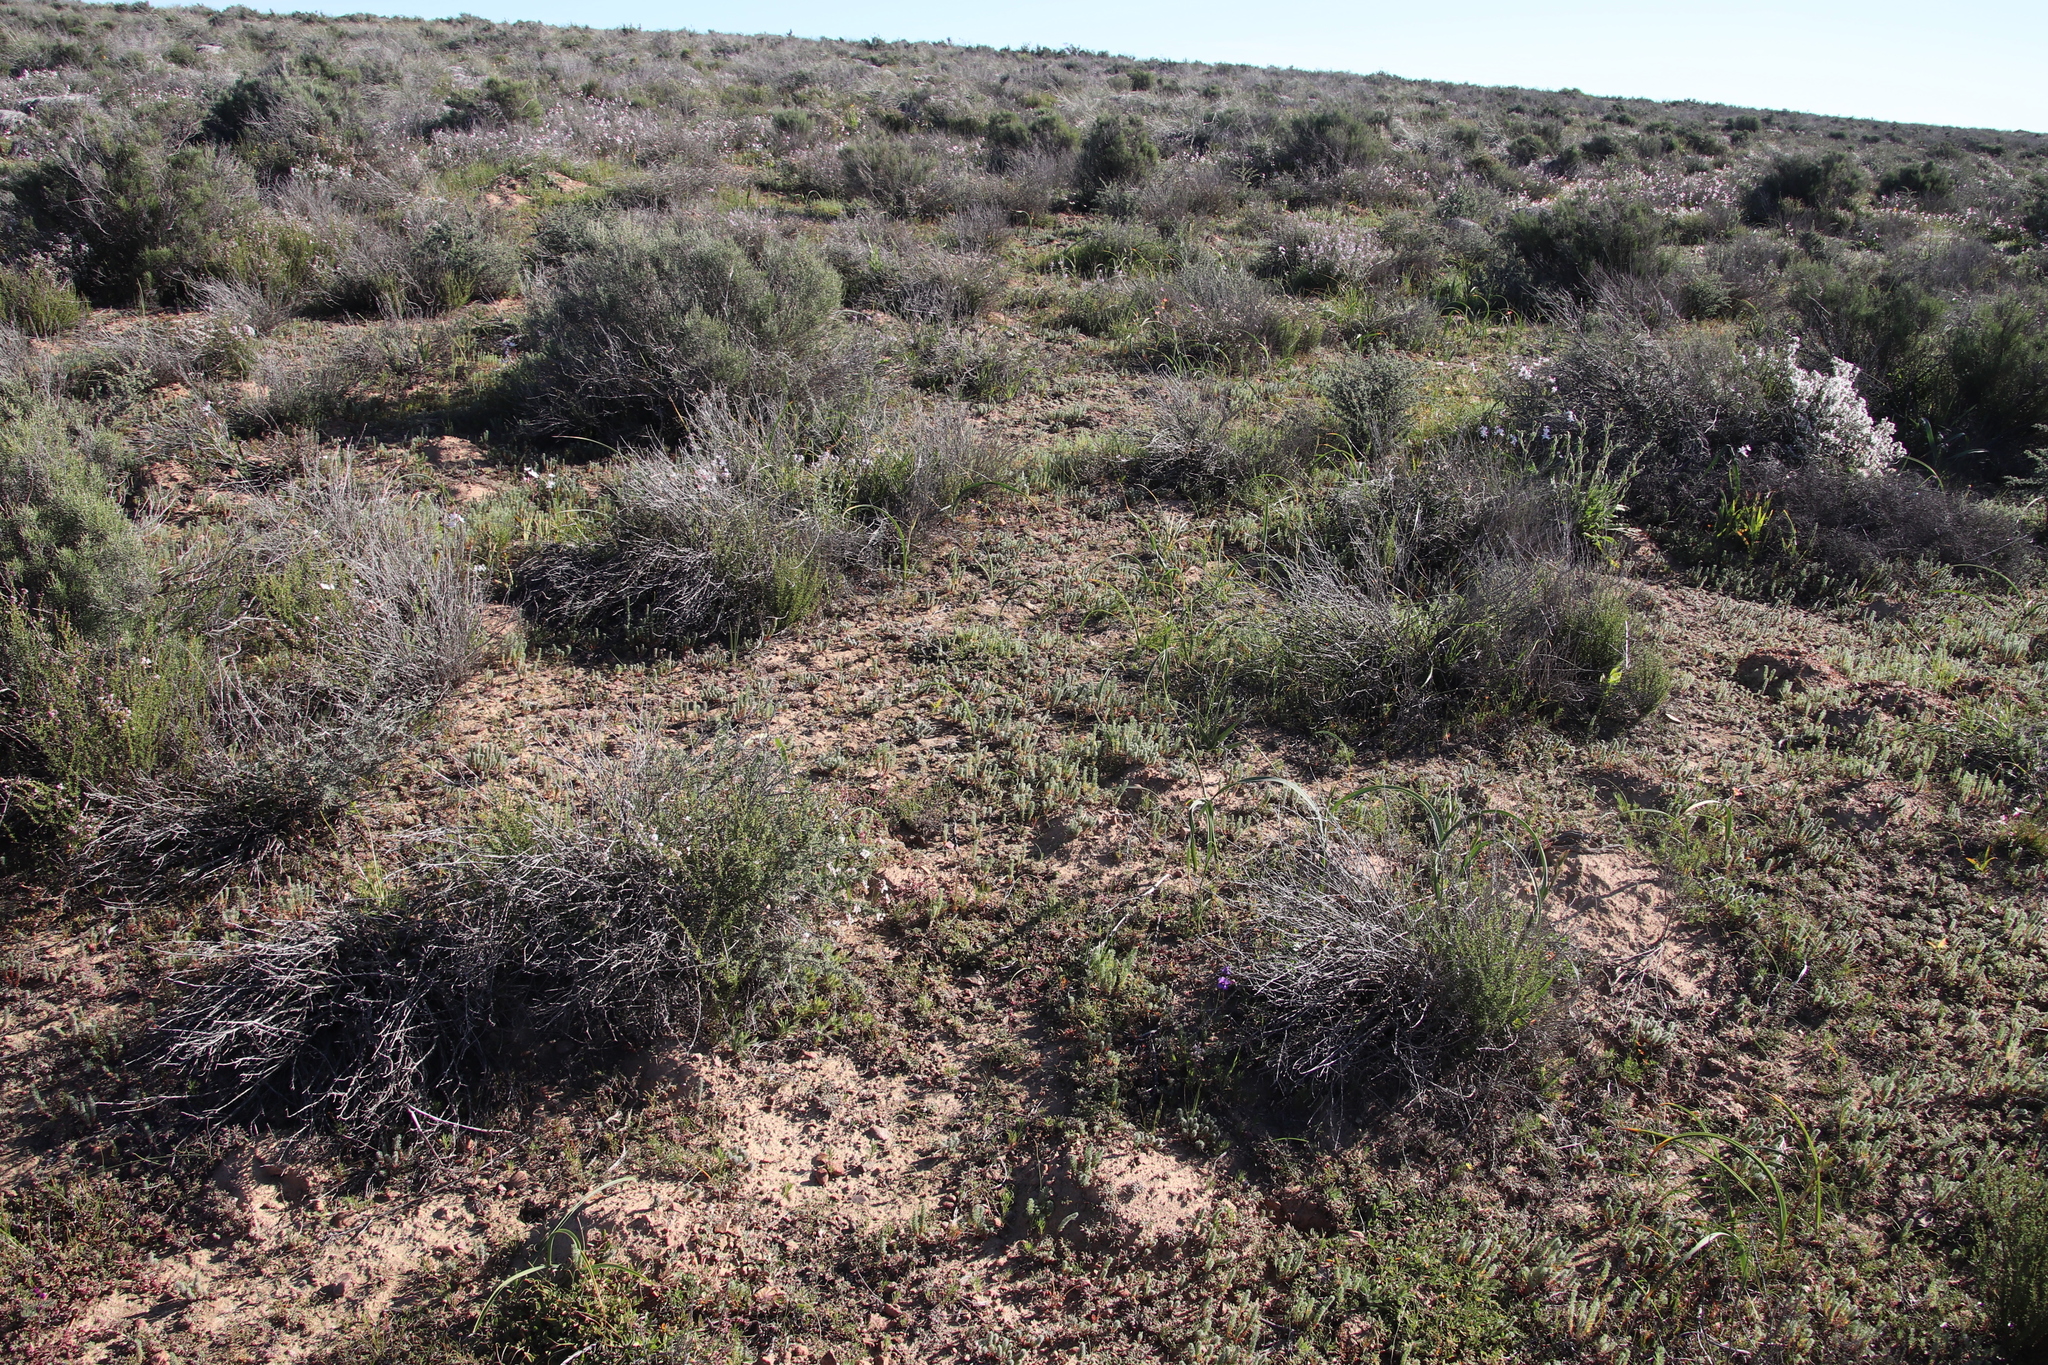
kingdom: Plantae
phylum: Tracheophyta
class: Magnoliopsida
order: Oxalidales
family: Oxalidaceae
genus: Oxalis
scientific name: Oxalis massoniana
